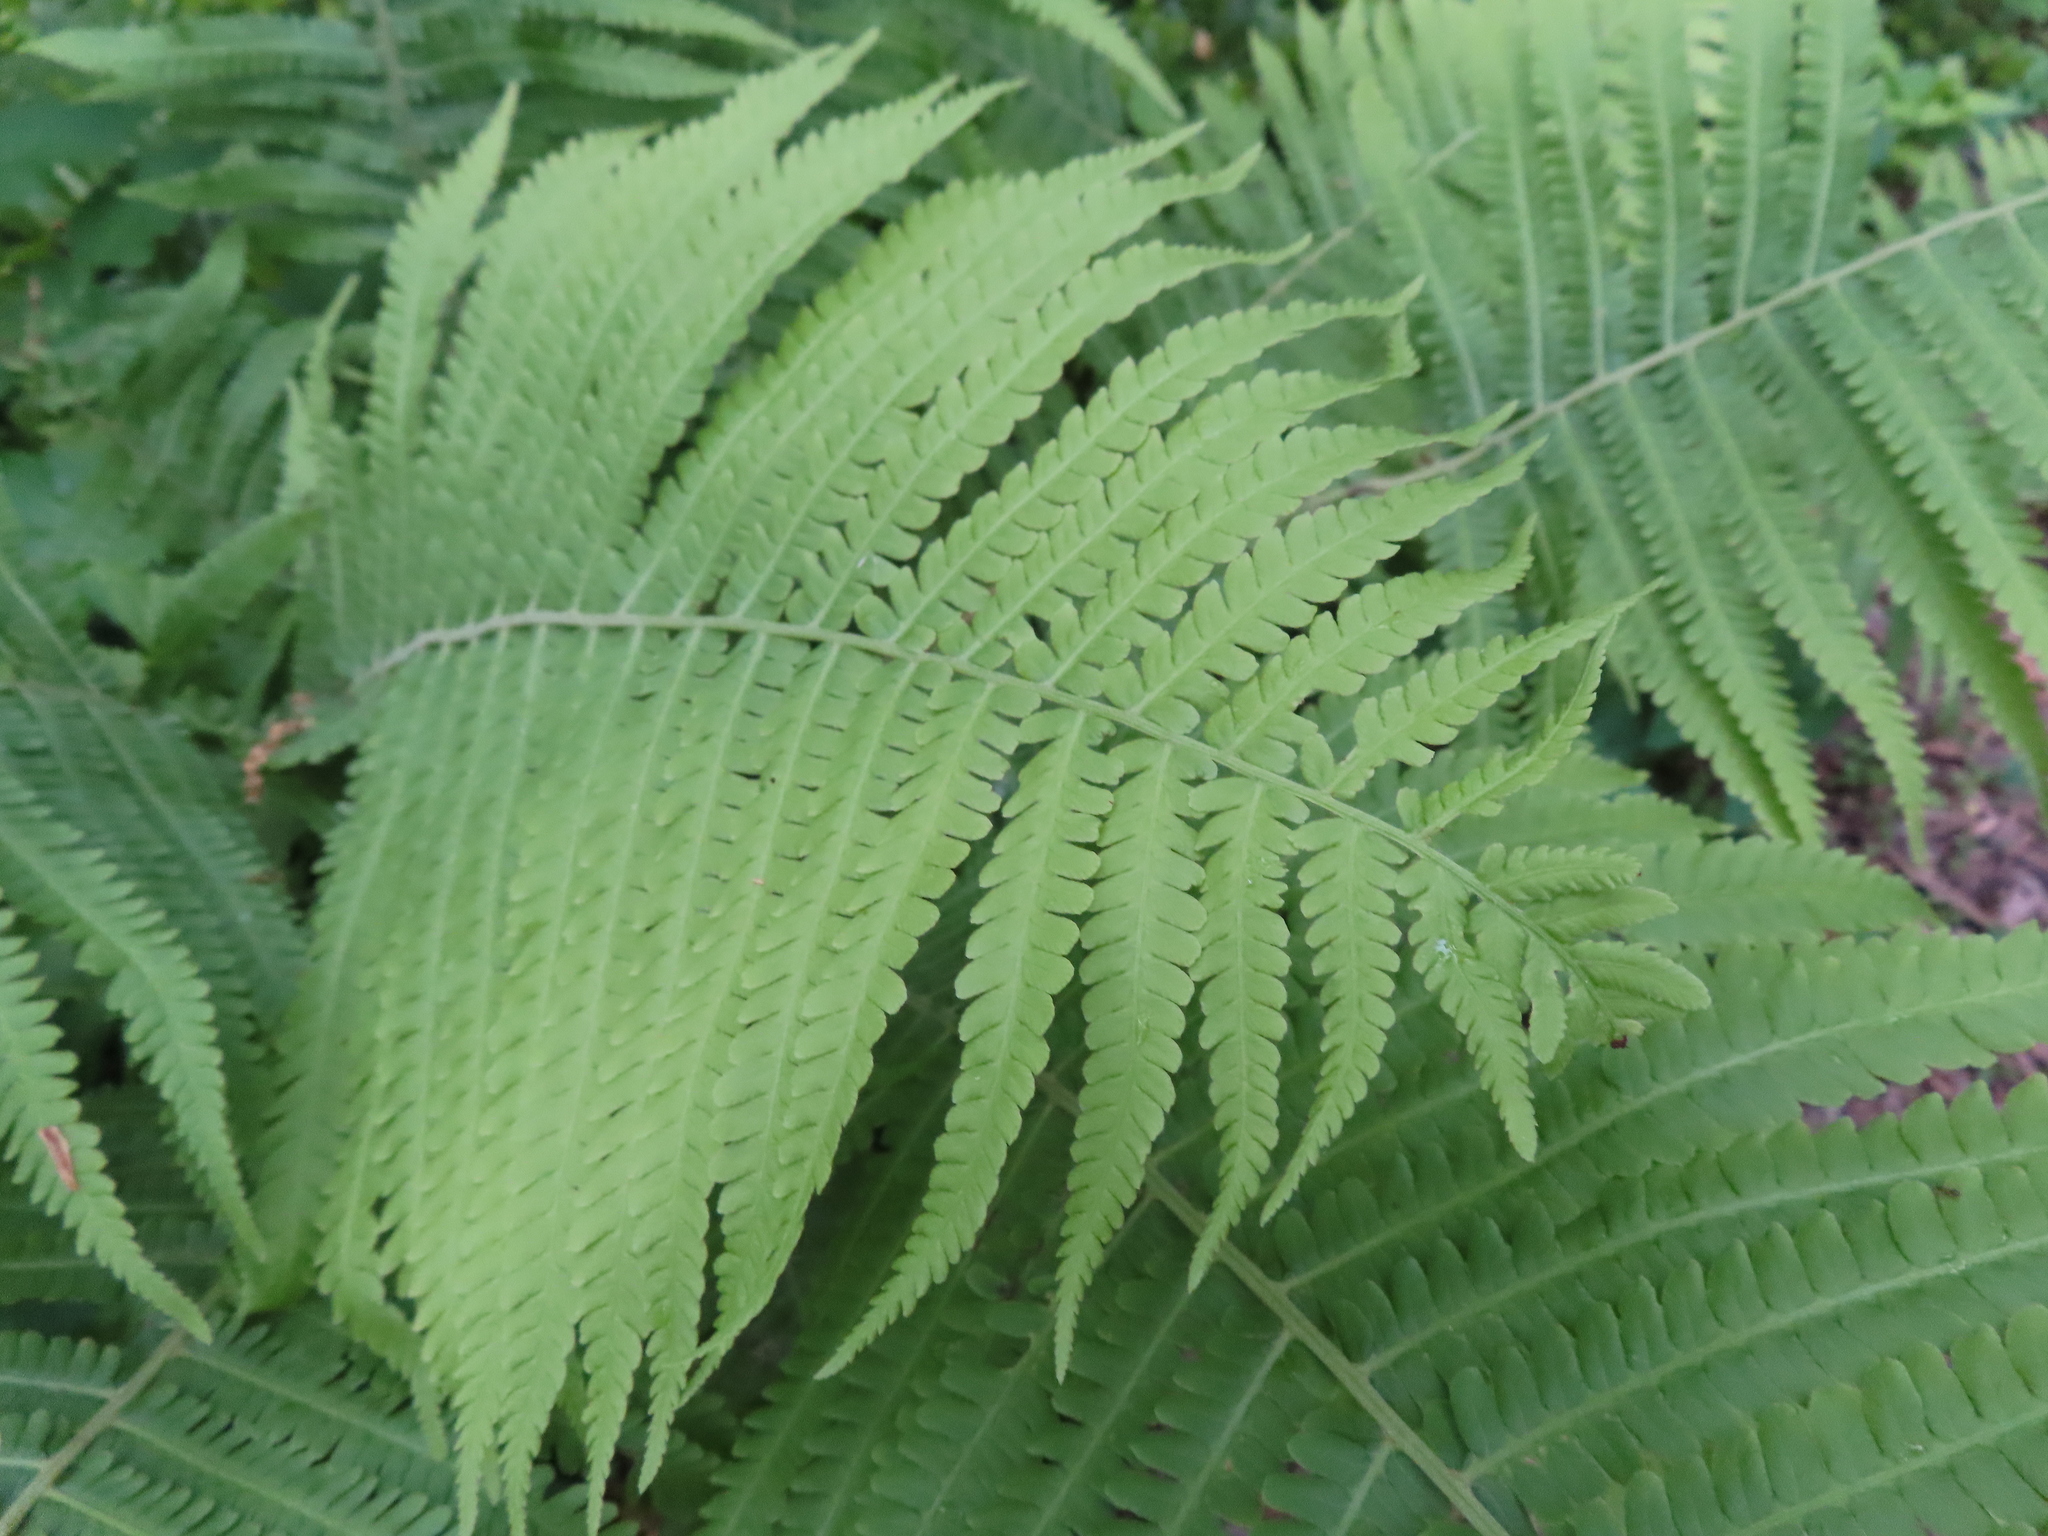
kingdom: Plantae
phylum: Tracheophyta
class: Polypodiopsida
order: Polypodiales
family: Onocleaceae
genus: Matteuccia
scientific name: Matteuccia struthiopteris
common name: Ostrich fern
